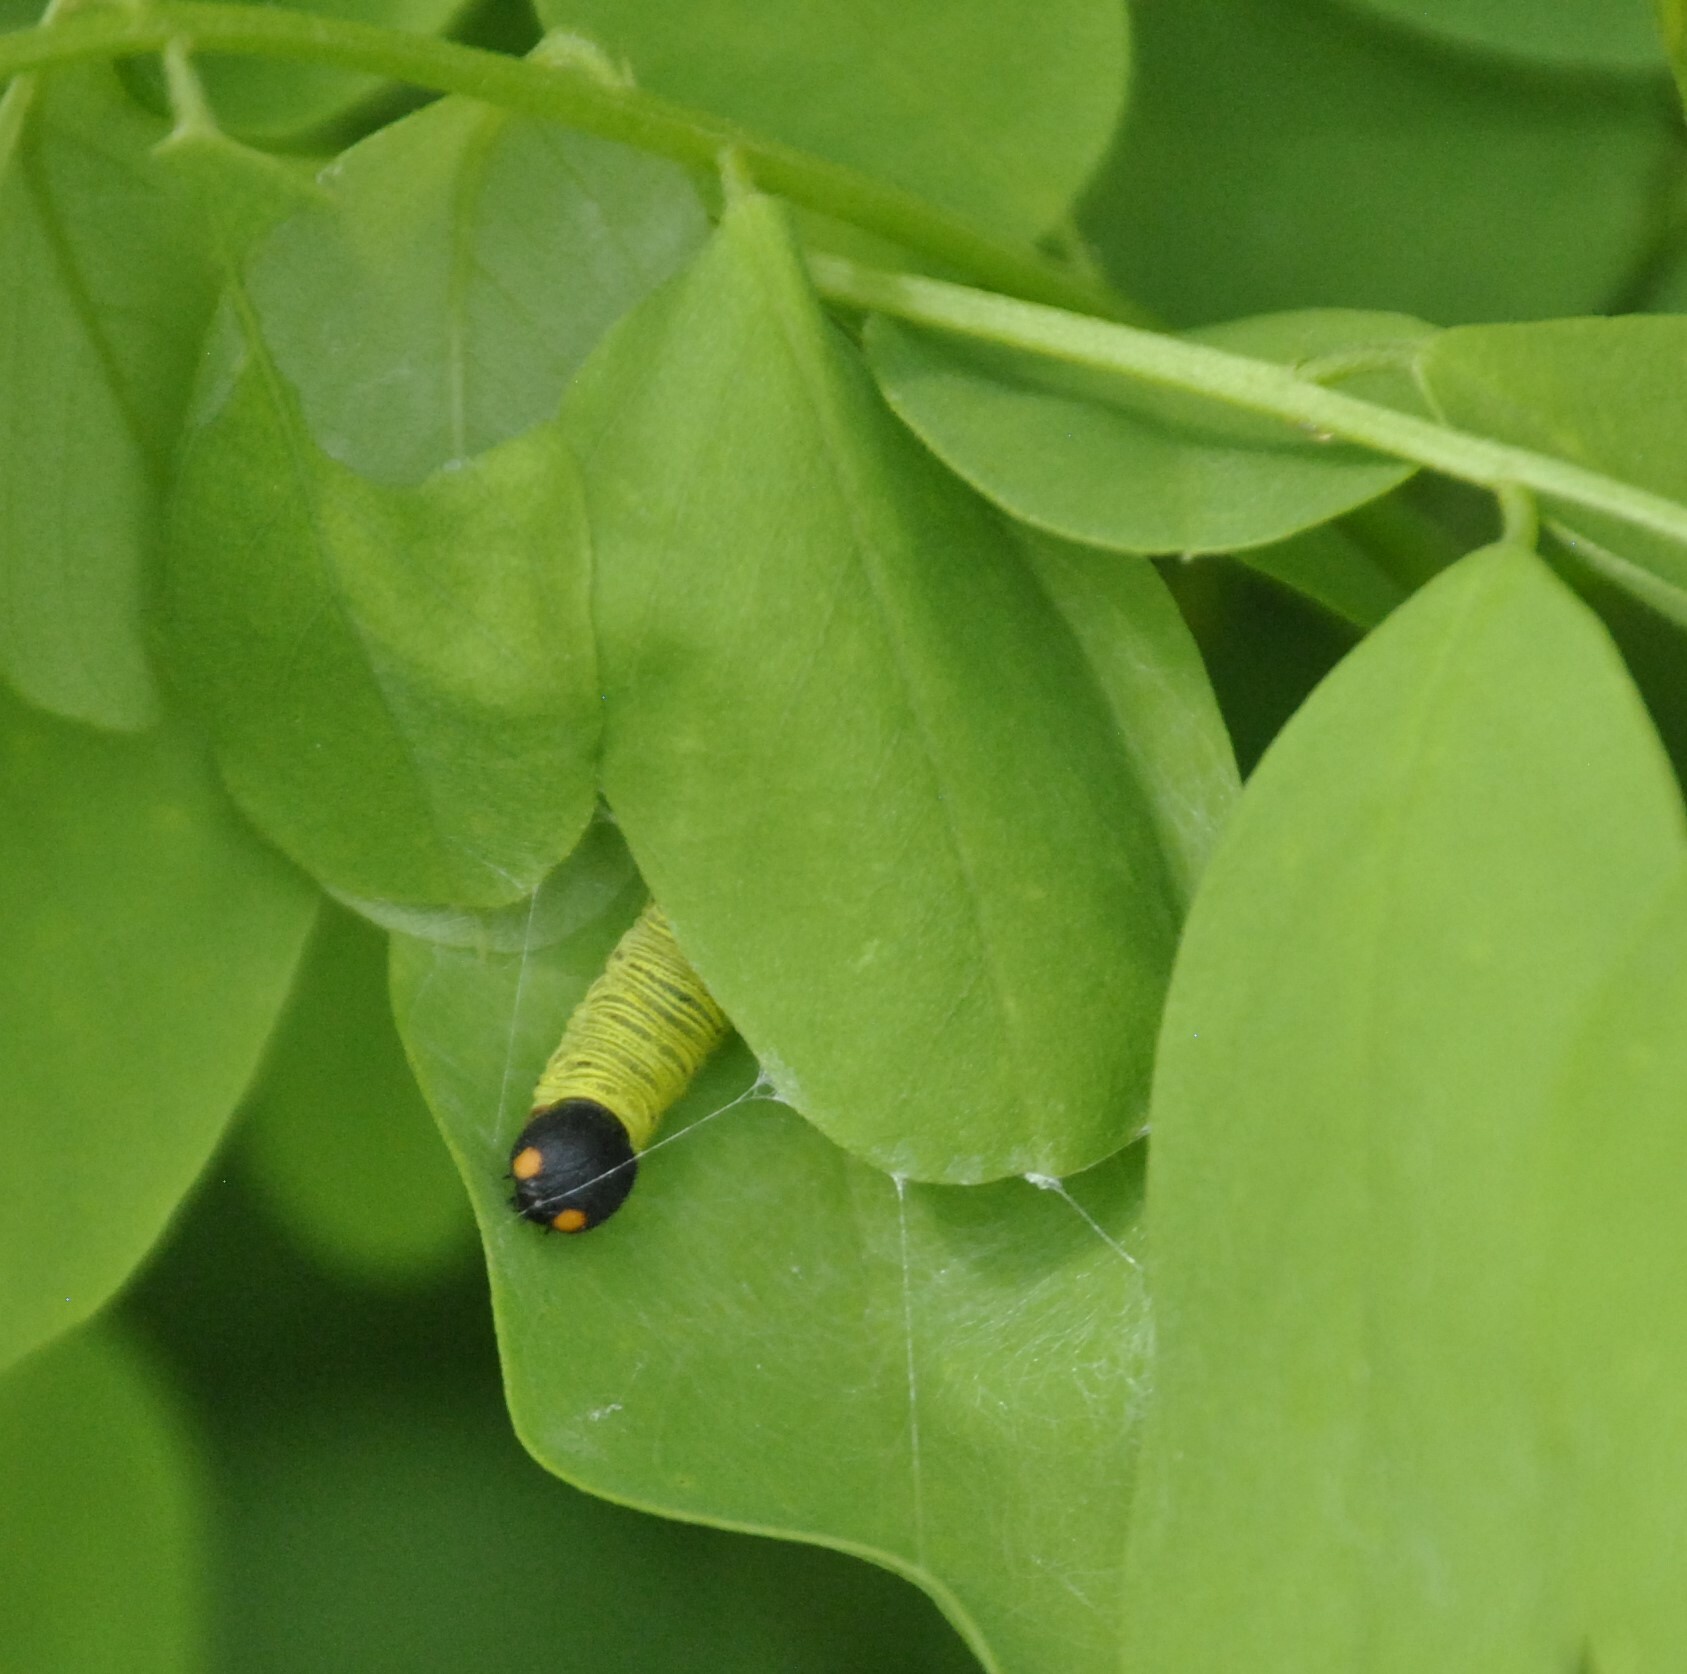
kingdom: Animalia
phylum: Arthropoda
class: Insecta
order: Lepidoptera
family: Hesperiidae
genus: Epargyreus
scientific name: Epargyreus clarus
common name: Silver-spotted skipper
